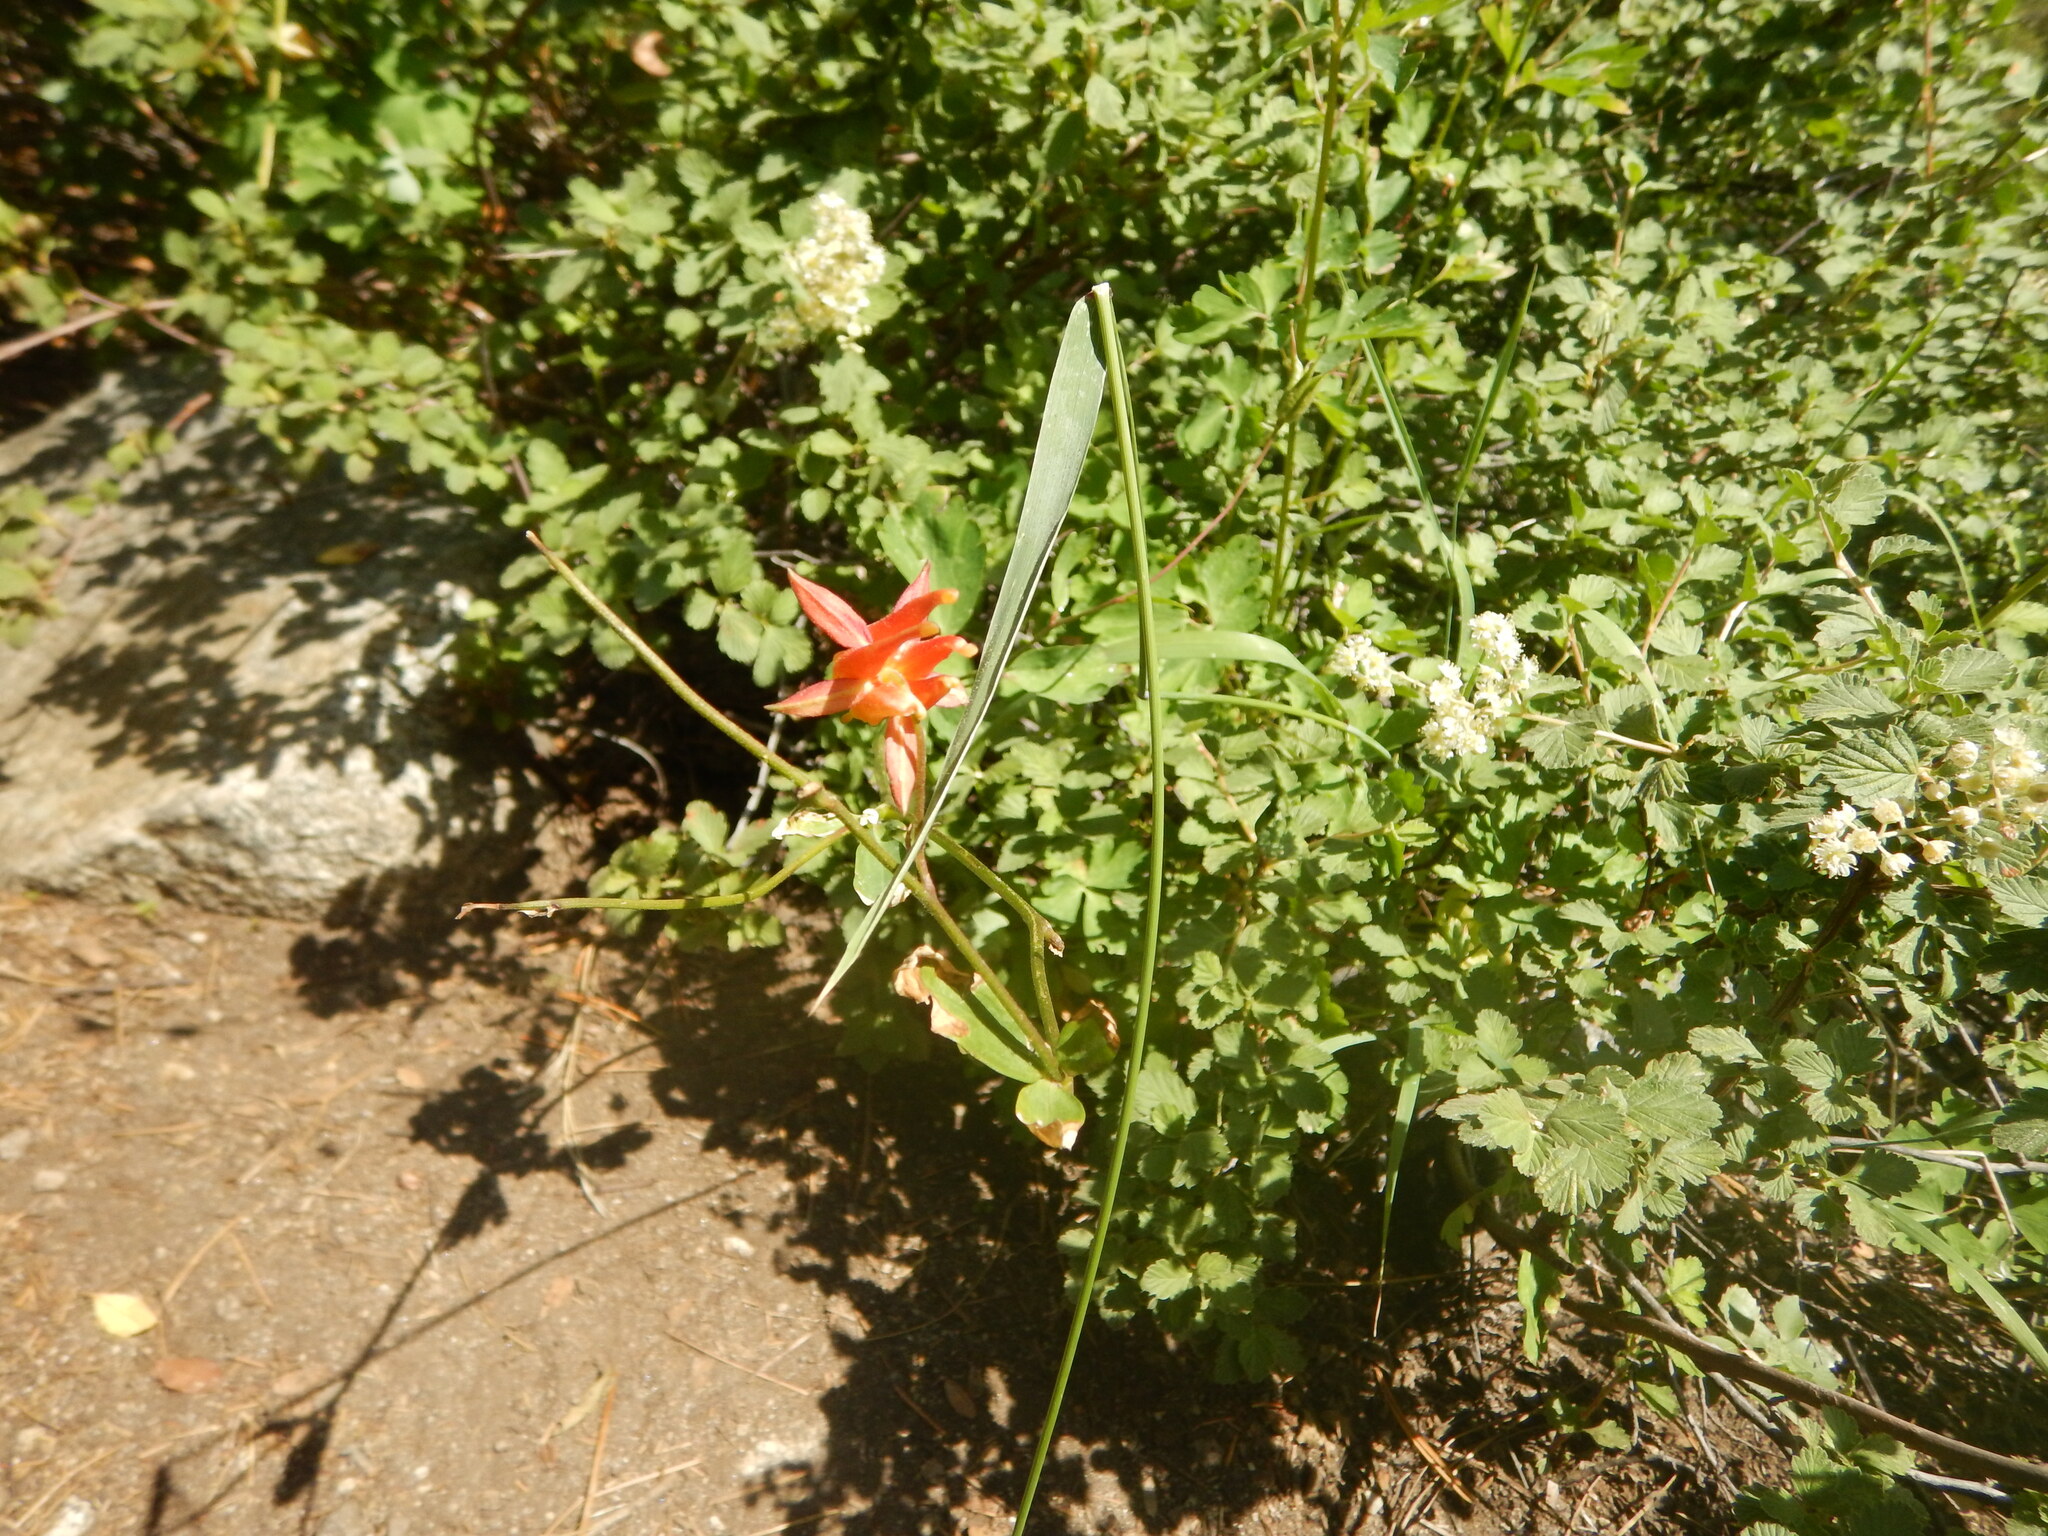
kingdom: Plantae
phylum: Tracheophyta
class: Magnoliopsida
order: Ranunculales
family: Ranunculaceae
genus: Aquilegia
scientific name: Aquilegia formosa
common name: Sitka columbine
